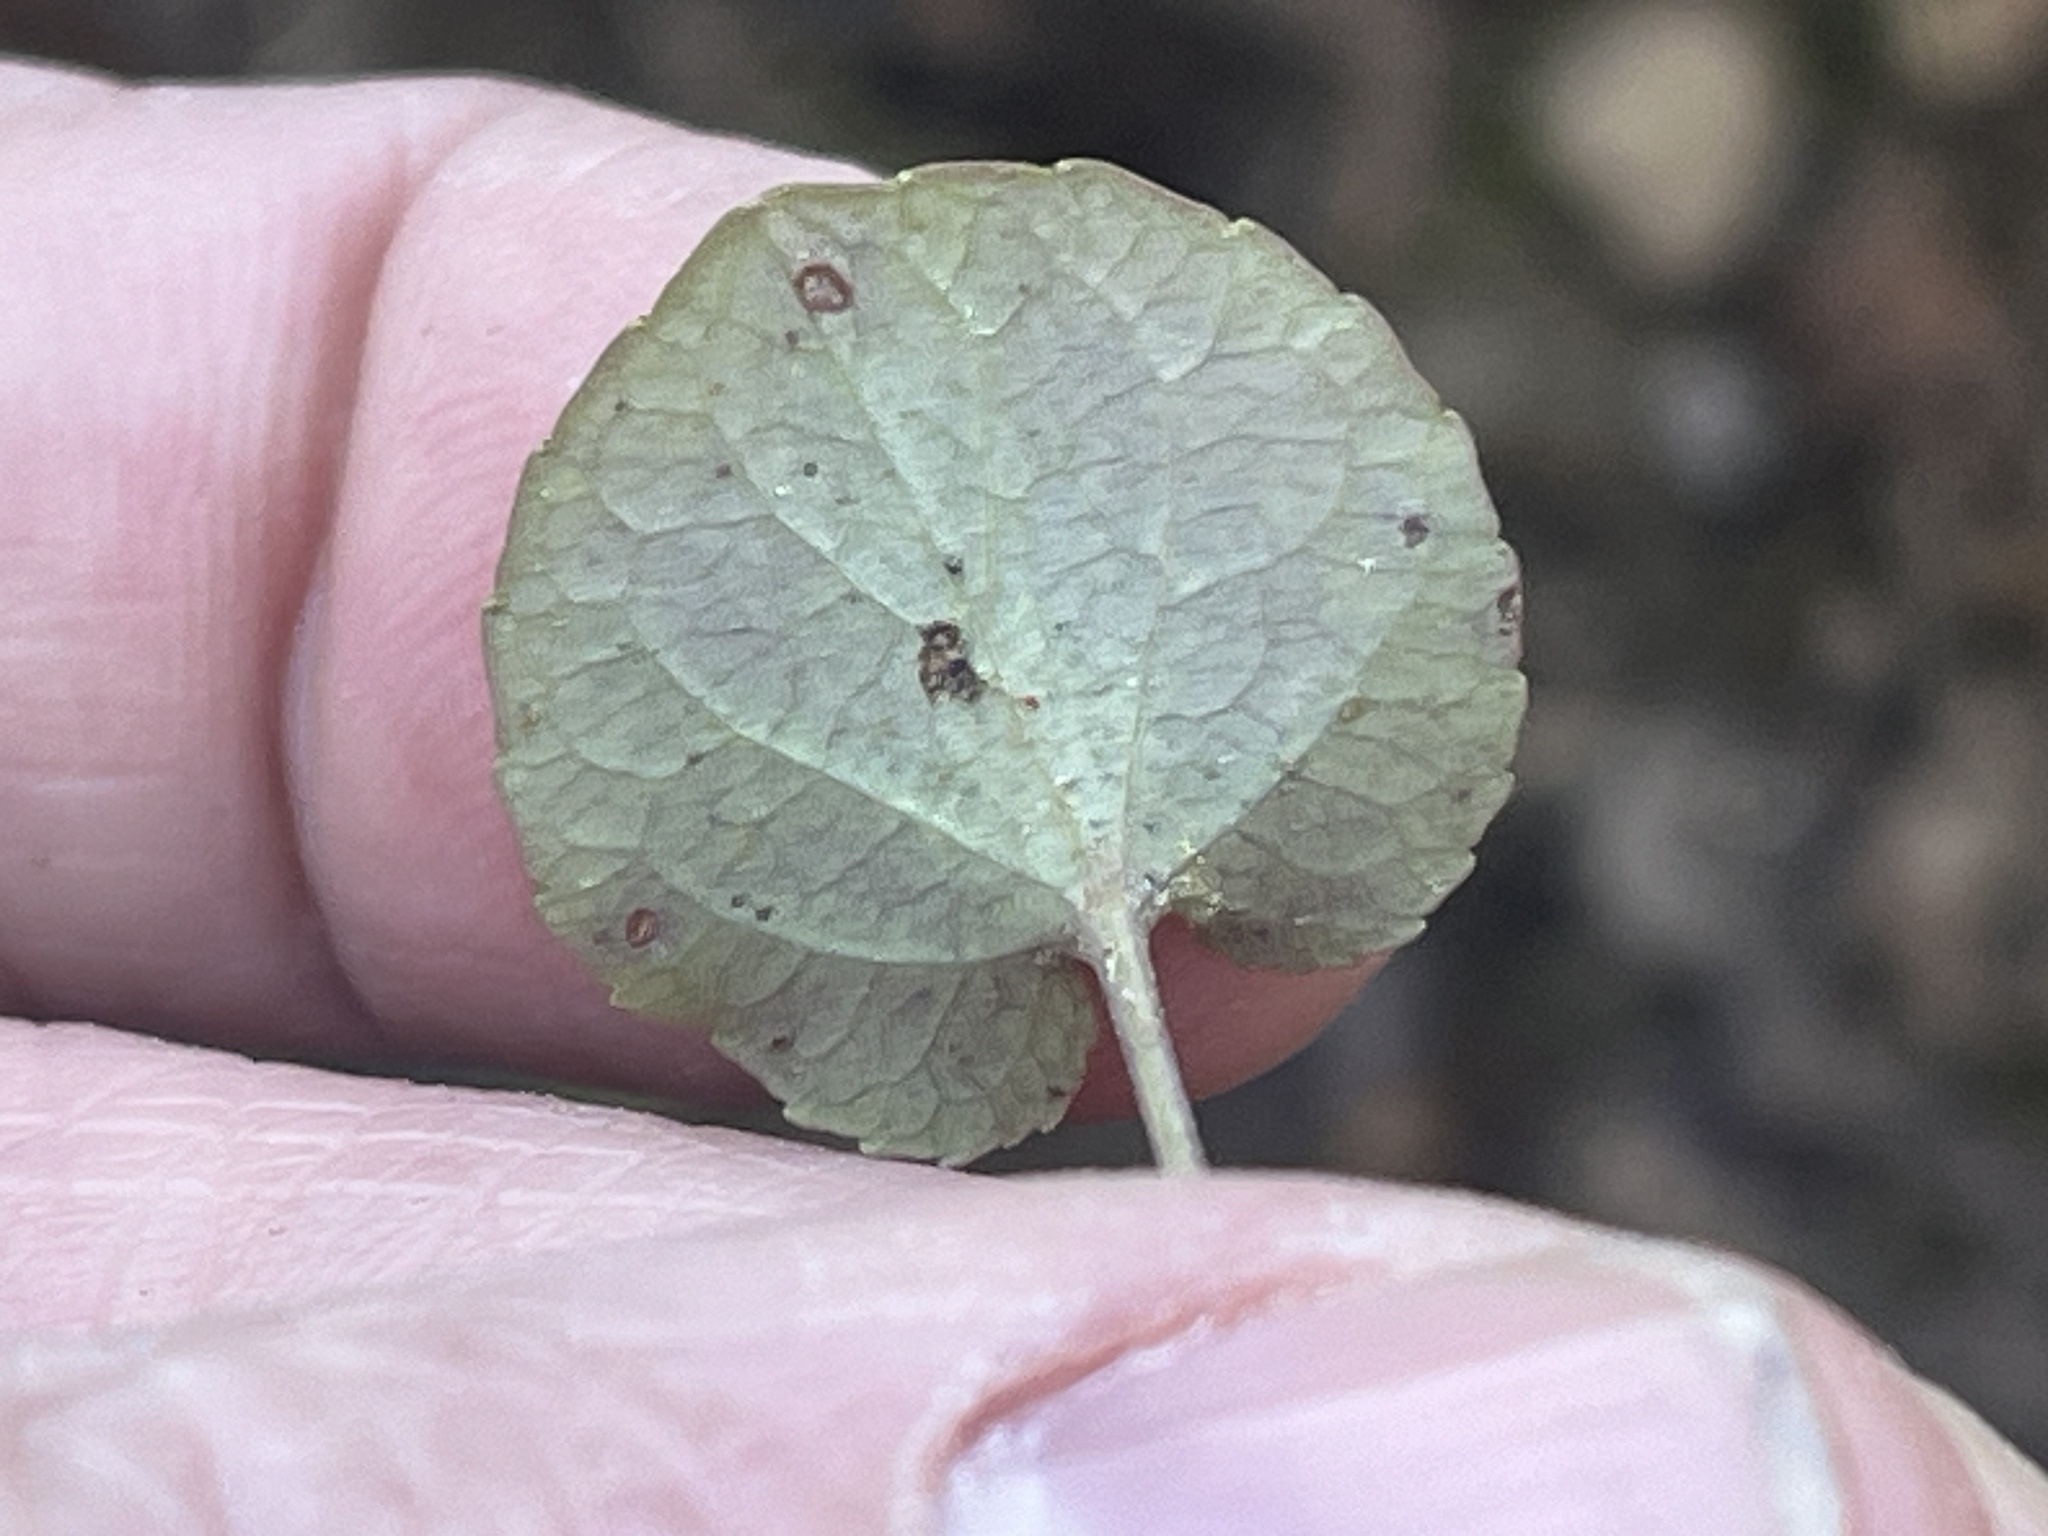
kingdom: Plantae
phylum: Tracheophyta
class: Magnoliopsida
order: Malpighiales
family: Violaceae
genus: Viola
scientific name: Viola walteri
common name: Prostrate southern violet
